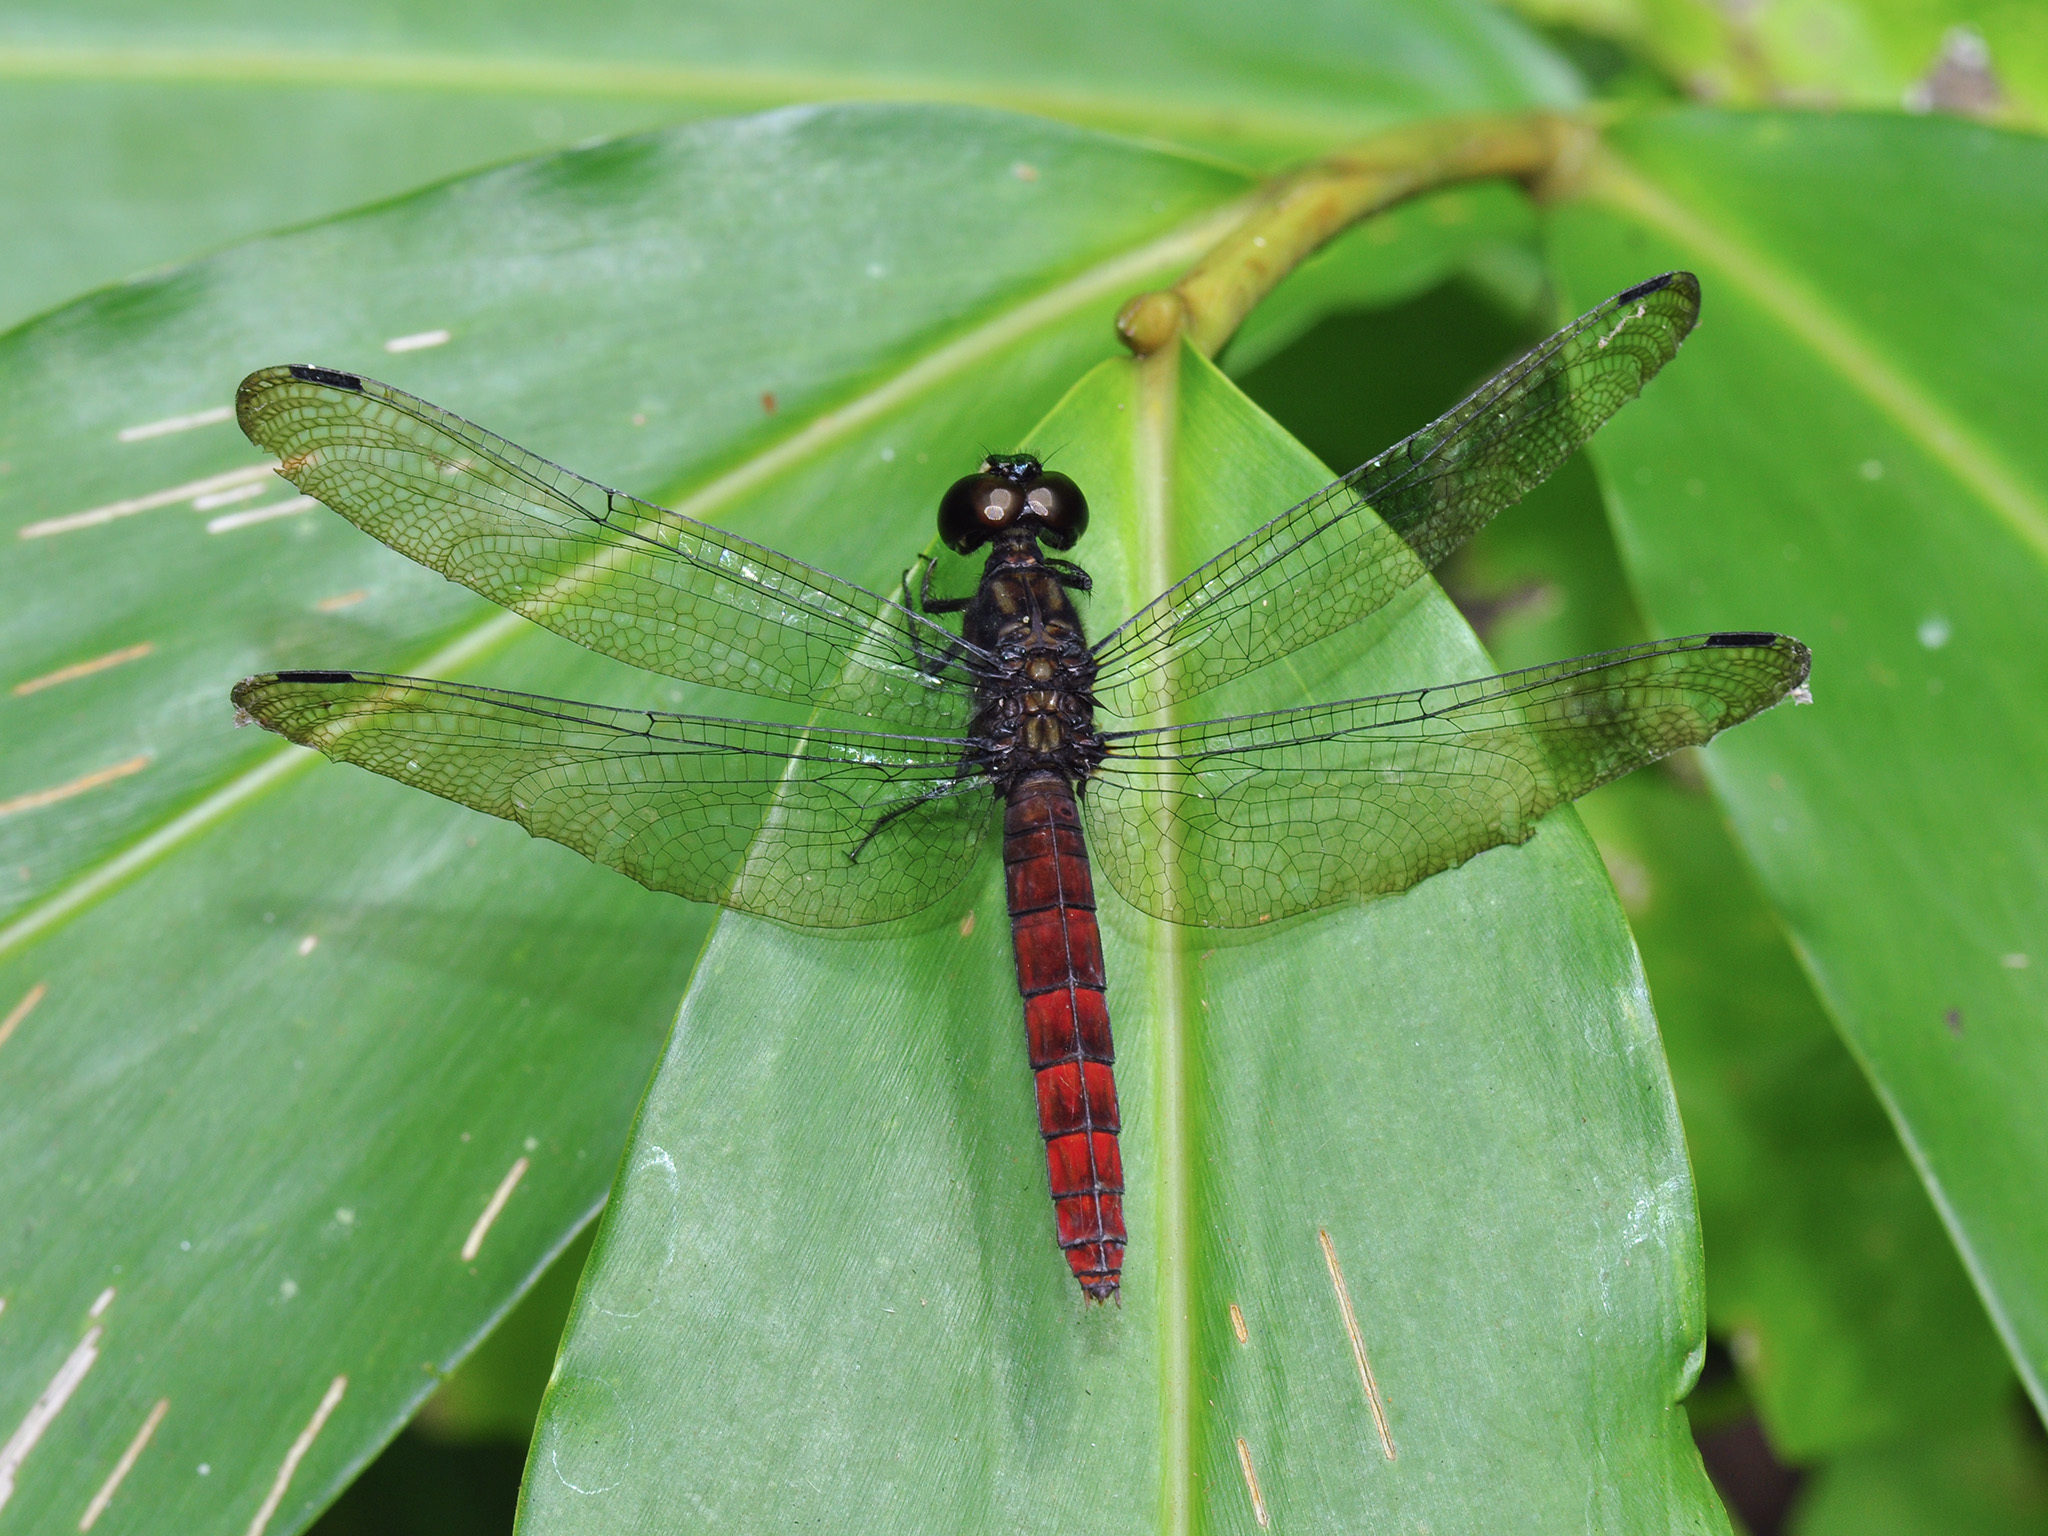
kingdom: Animalia
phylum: Arthropoda
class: Insecta
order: Odonata
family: Libellulidae
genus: Lyriothemis
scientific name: Lyriothemis cleis
